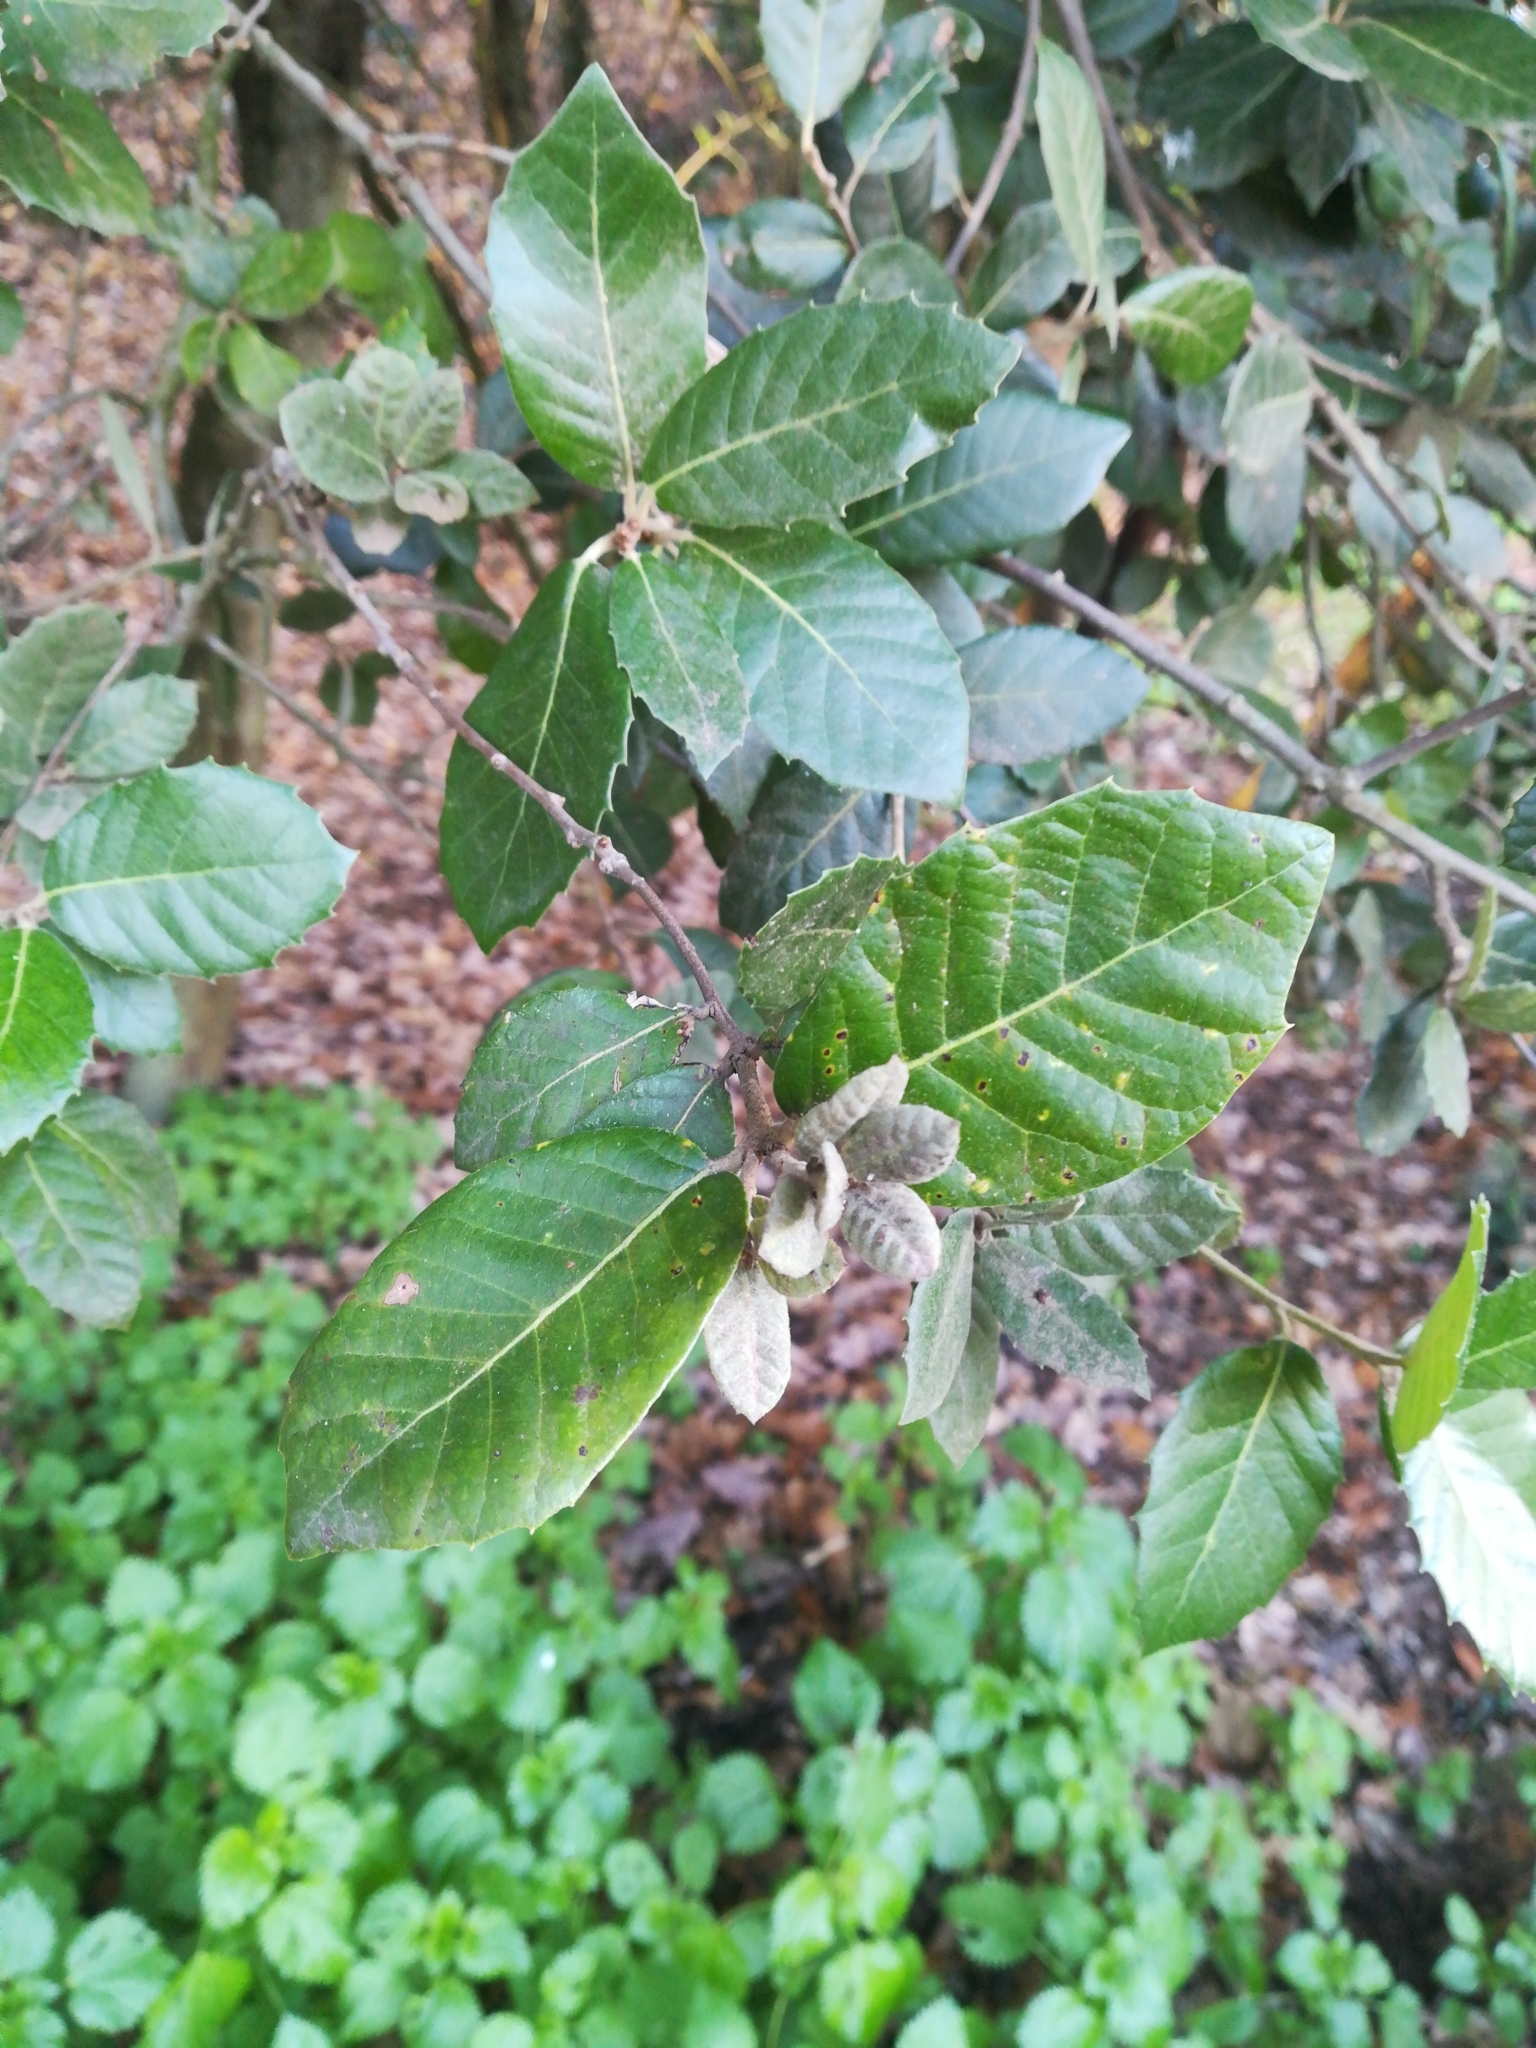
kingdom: Plantae
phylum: Tracheophyta
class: Magnoliopsida
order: Fagales
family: Fagaceae
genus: Quercus
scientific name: Quercus ilex
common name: Evergreen oak
